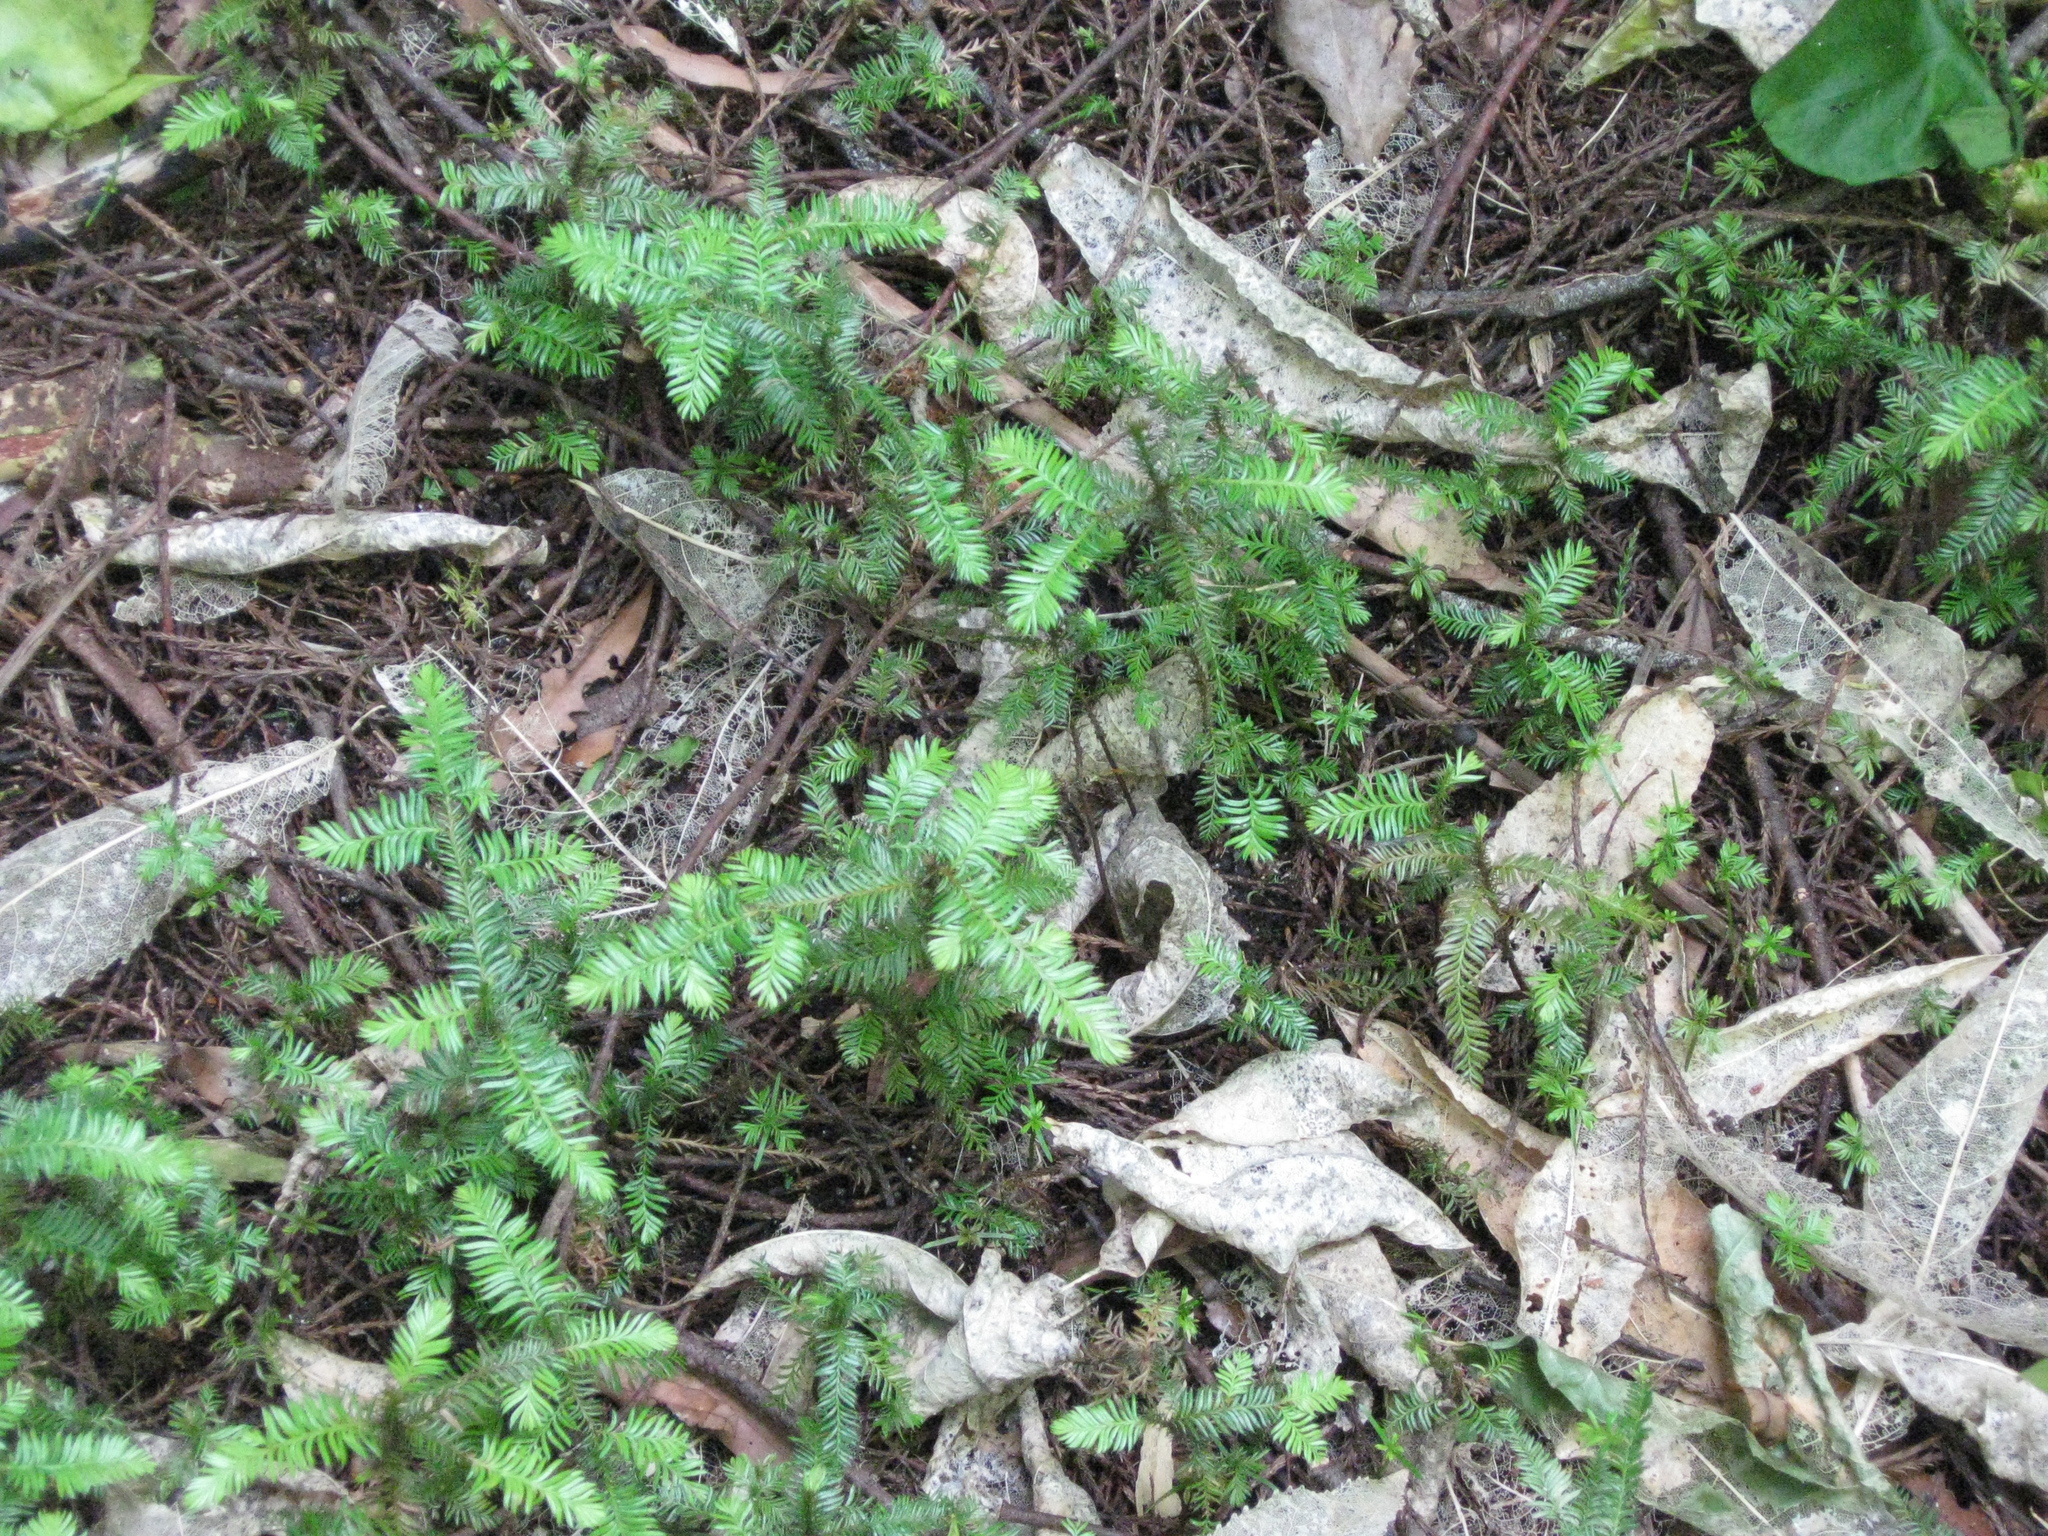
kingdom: Plantae
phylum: Tracheophyta
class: Pinopsida
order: Pinales
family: Podocarpaceae
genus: Dacrycarpus
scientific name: Dacrycarpus dacrydioides
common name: White pine
